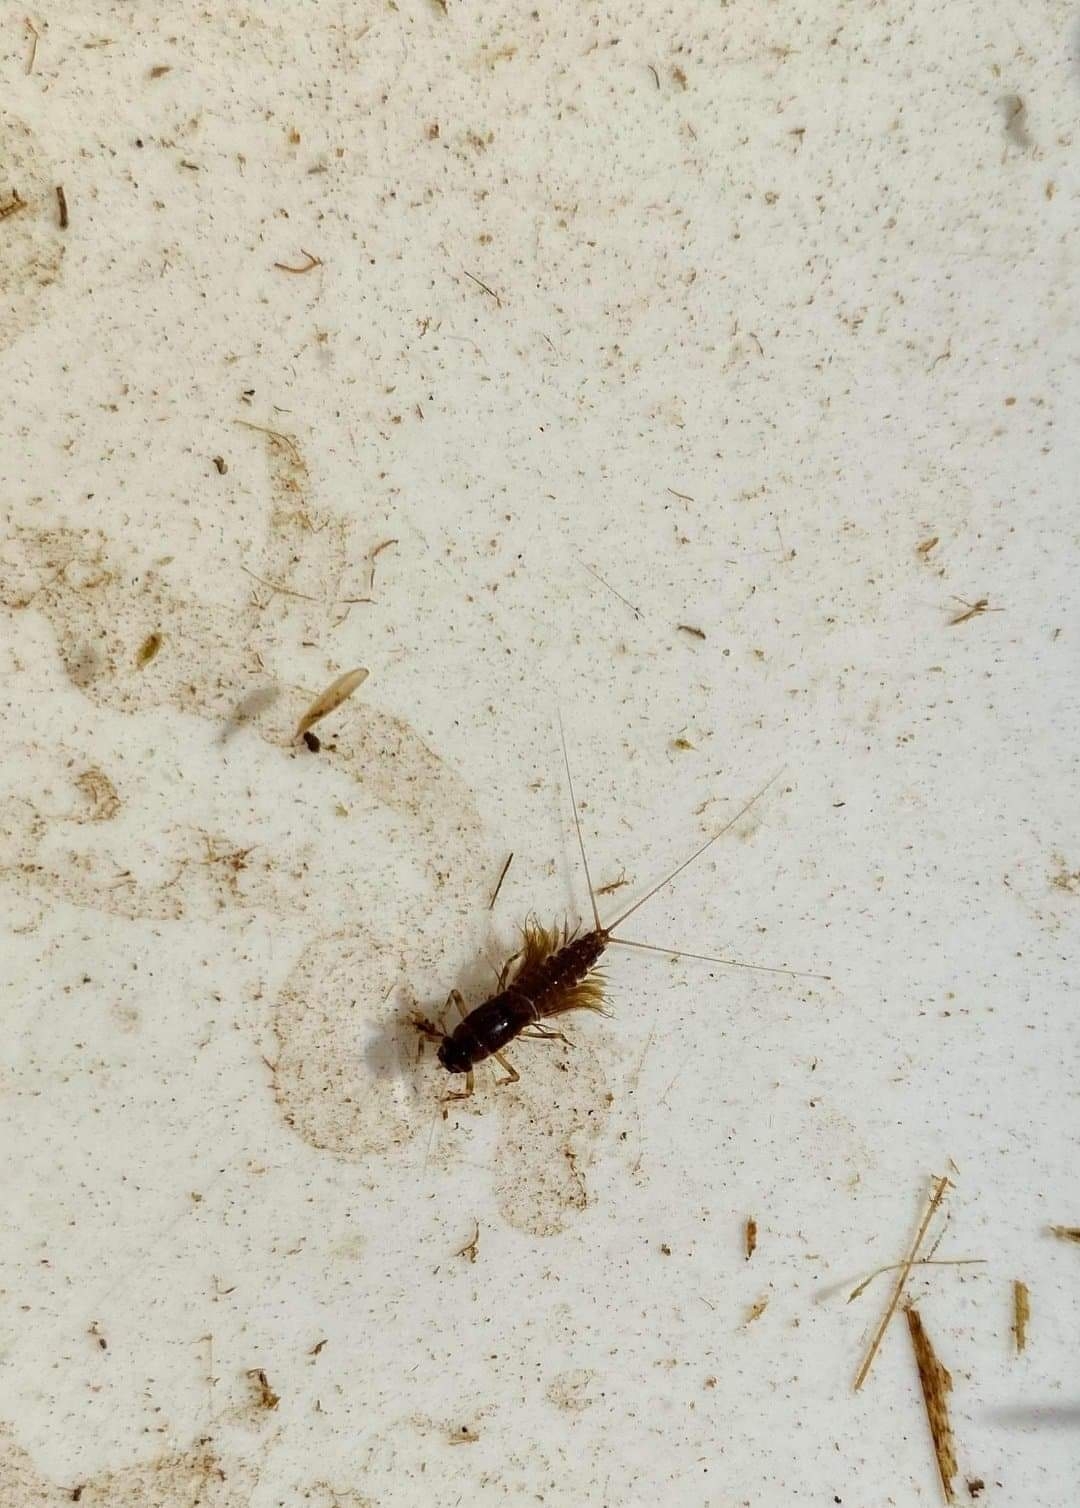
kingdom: Animalia
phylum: Arthropoda
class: Insecta
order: Ephemeroptera
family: Leptophlebiidae
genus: Leptophlebia
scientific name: Leptophlebia marginata
